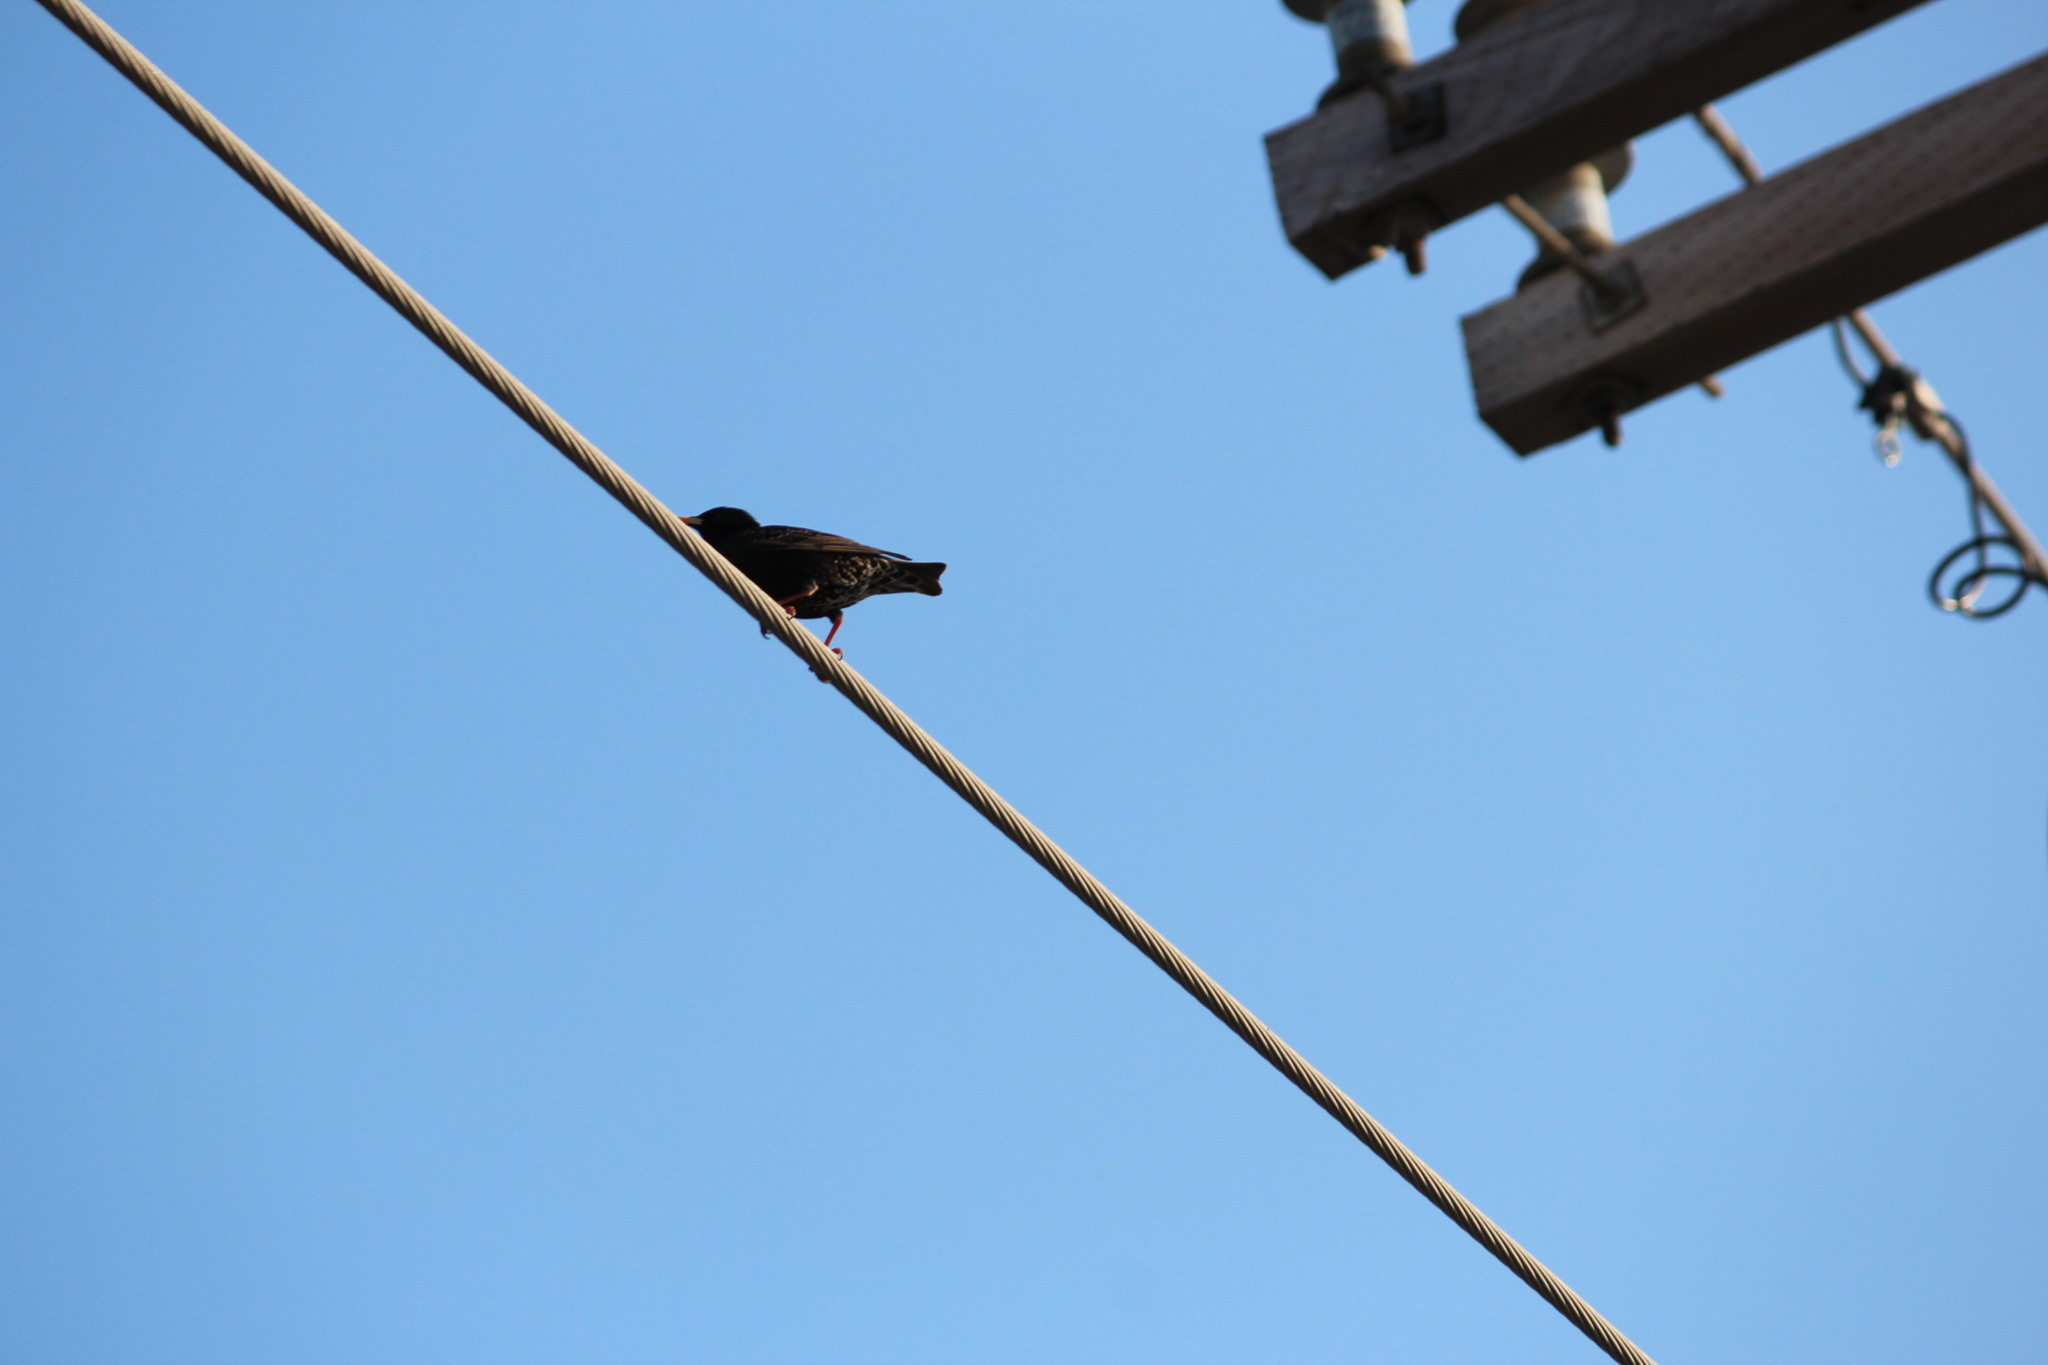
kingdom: Animalia
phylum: Chordata
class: Aves
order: Passeriformes
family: Sturnidae
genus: Sturnus
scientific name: Sturnus vulgaris
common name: Common starling
